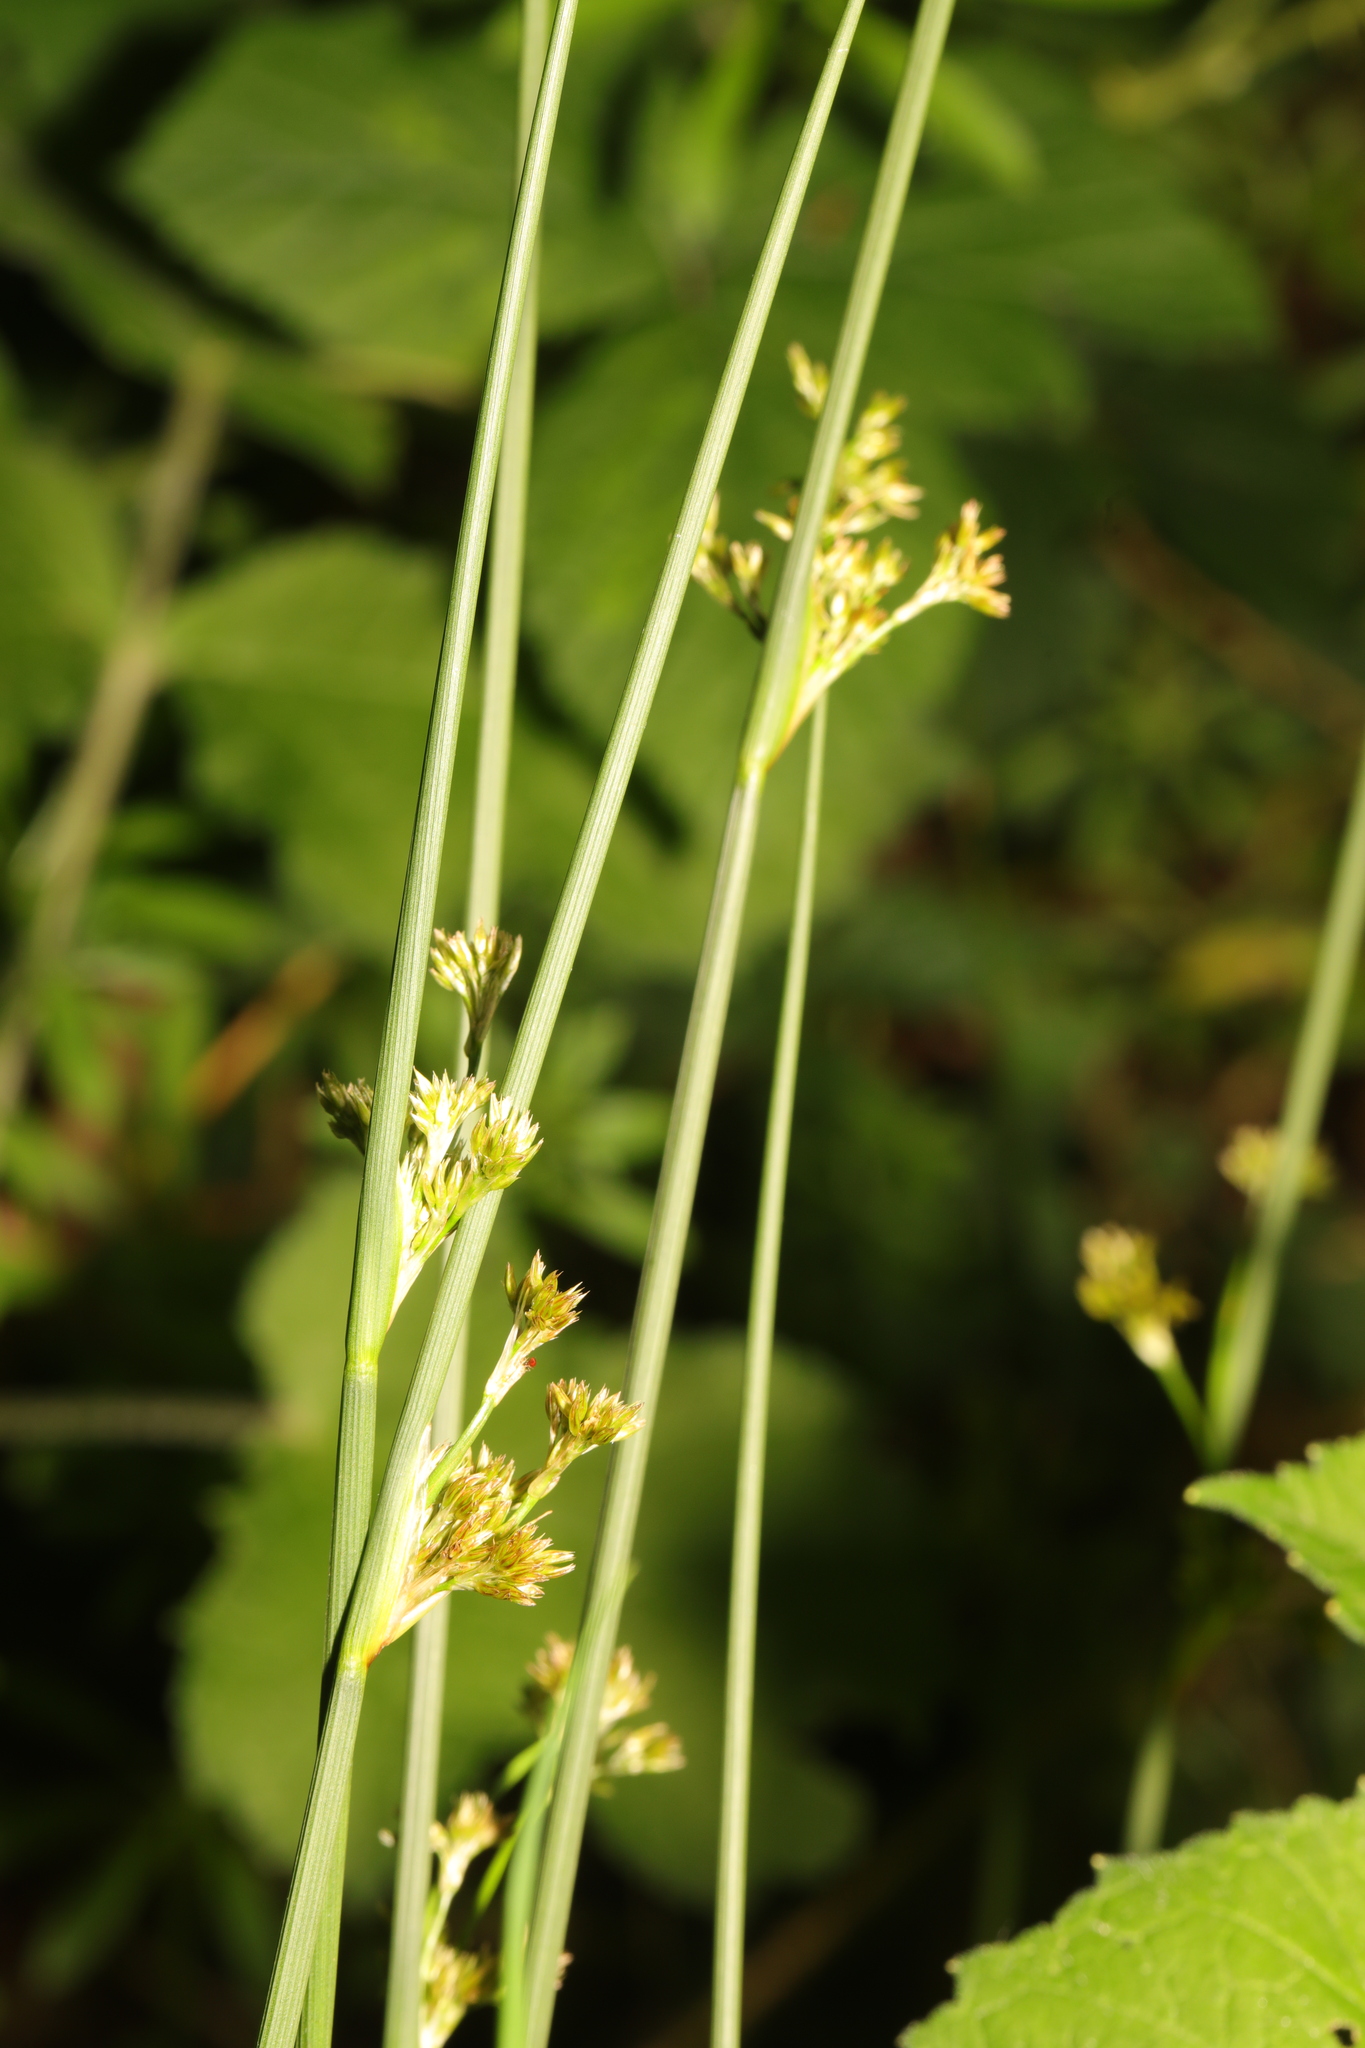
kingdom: Plantae
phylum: Tracheophyta
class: Liliopsida
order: Poales
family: Juncaceae
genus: Juncus
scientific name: Juncus inflexus
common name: Hard rush
